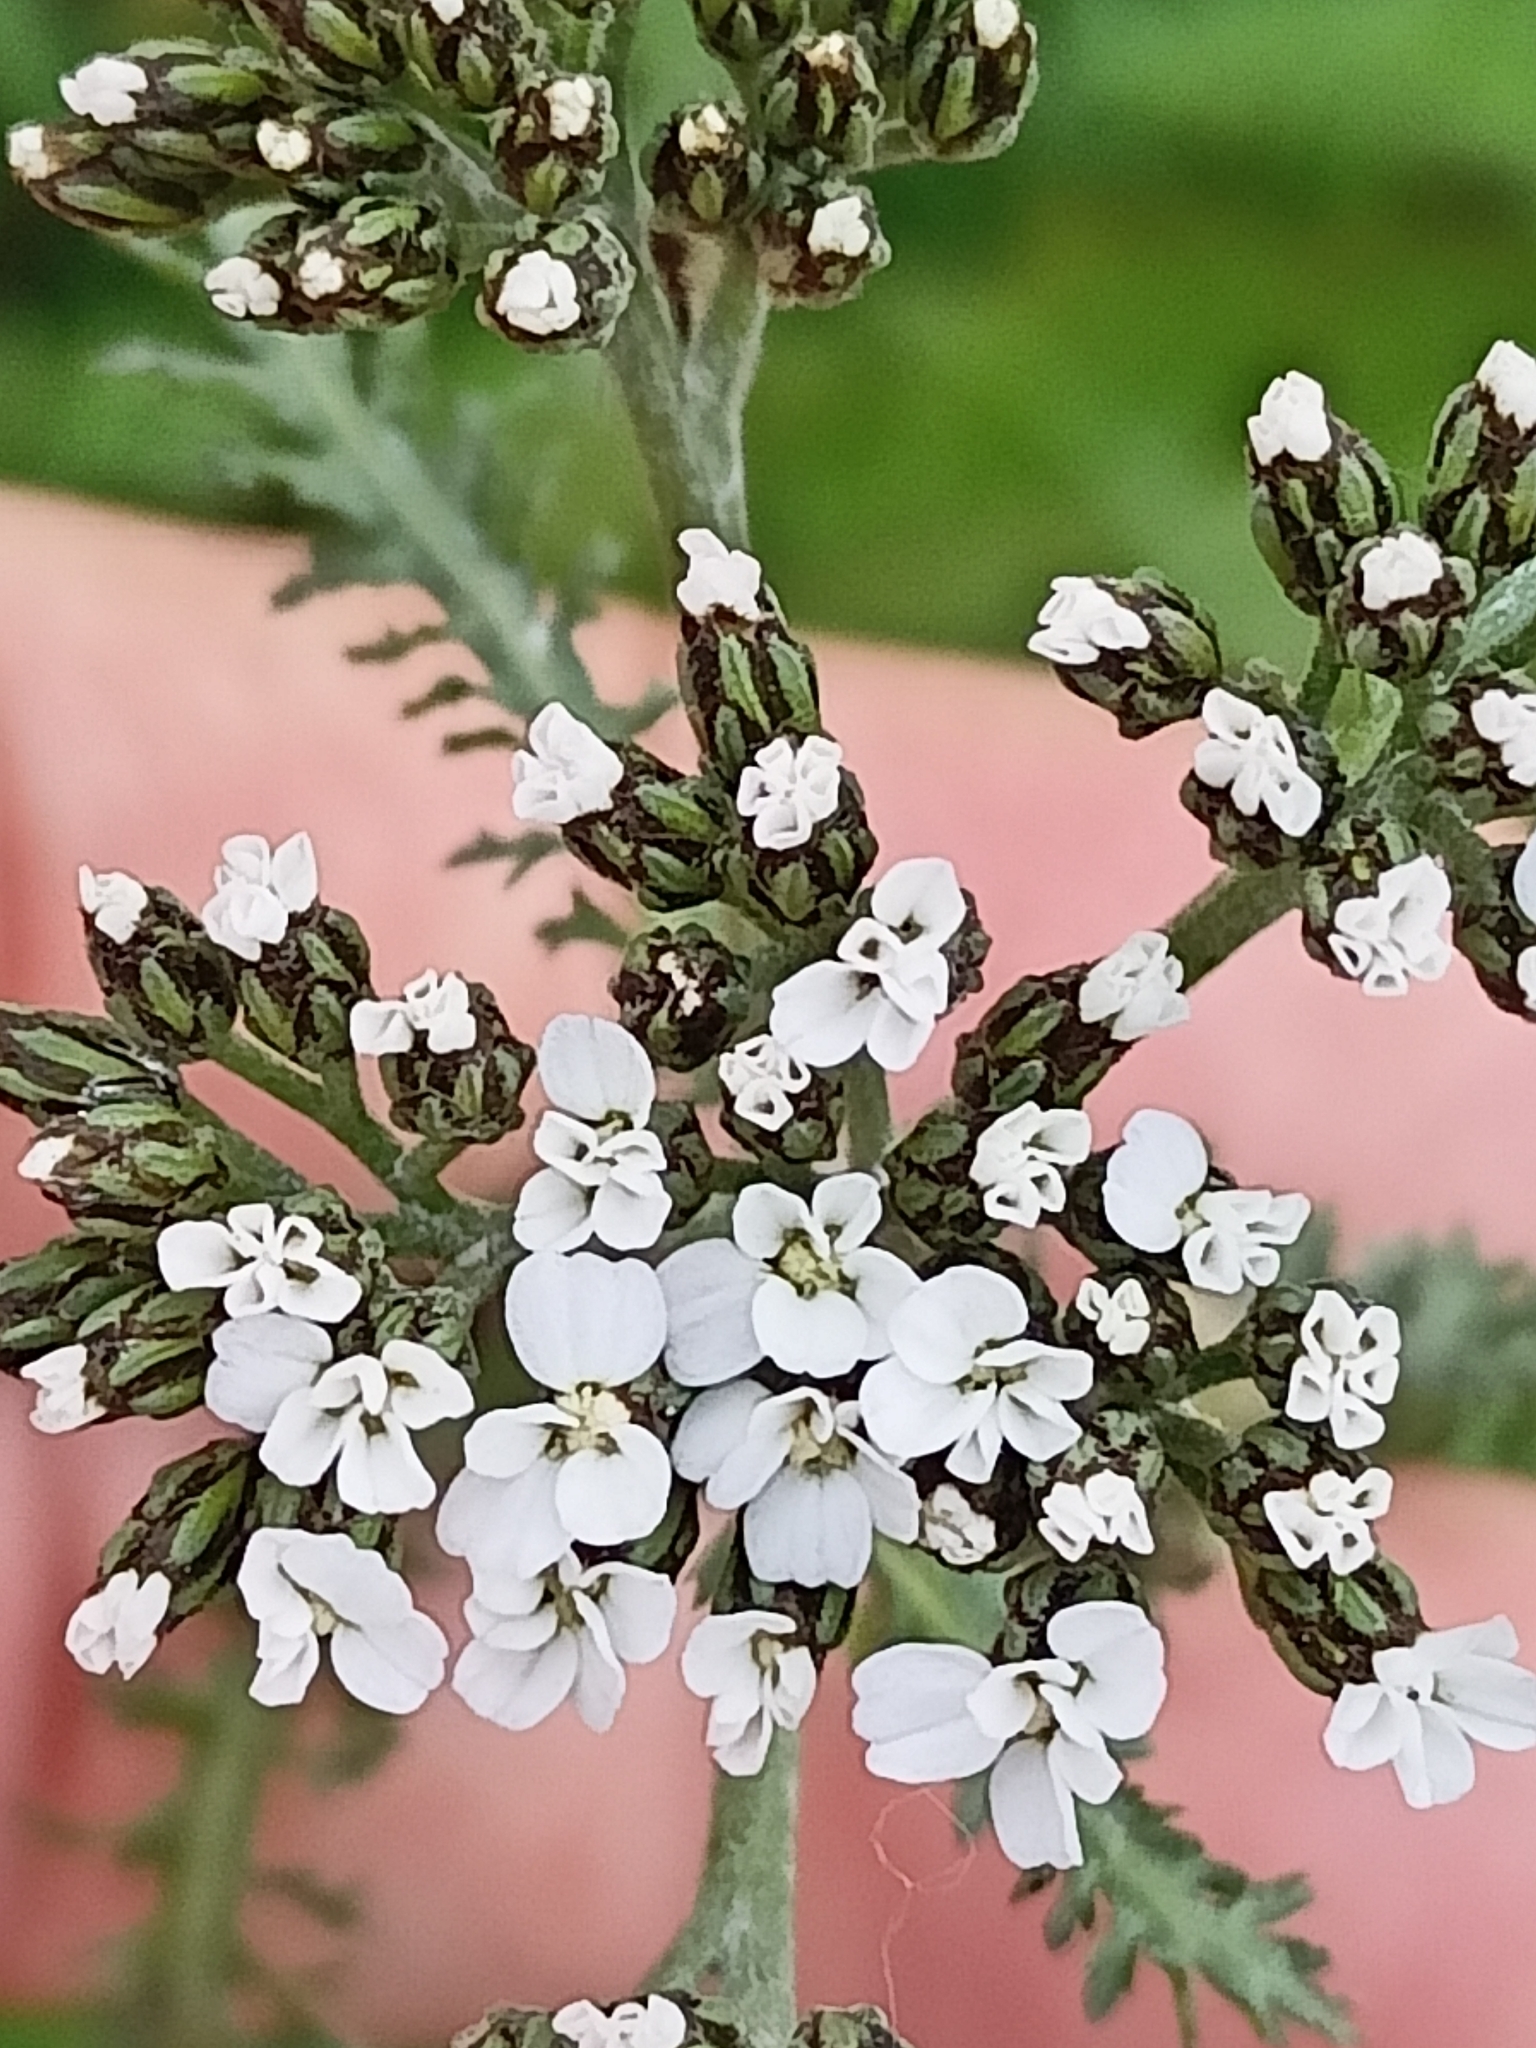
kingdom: Plantae
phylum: Tracheophyta
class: Magnoliopsida
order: Asterales
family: Asteraceae
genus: Achillea
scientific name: Achillea millefolium
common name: Yarrow
